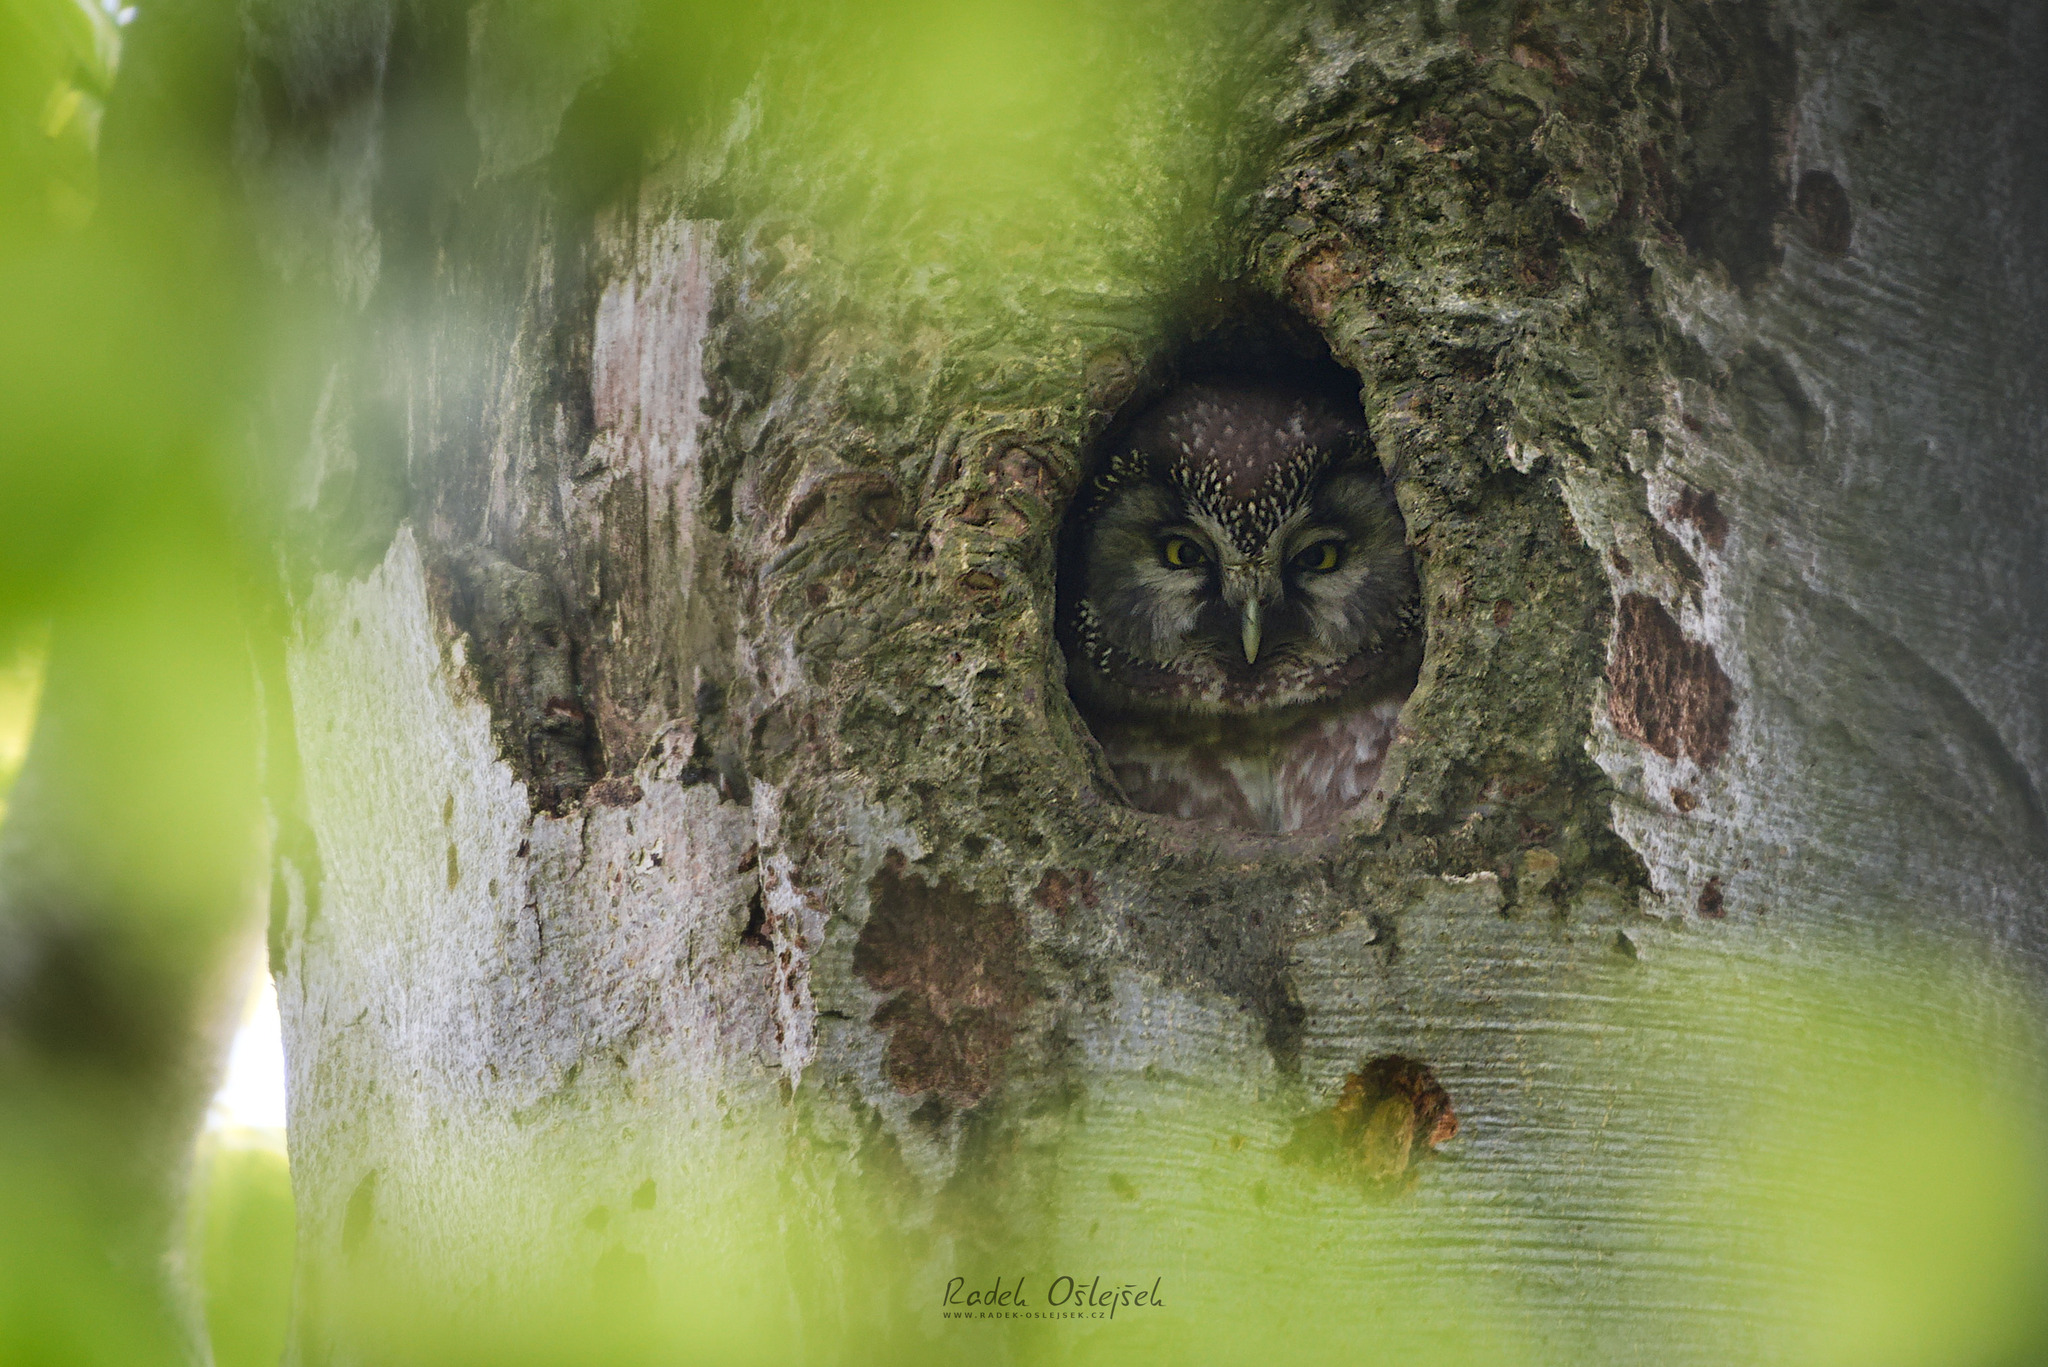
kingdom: Animalia
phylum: Chordata
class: Aves
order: Strigiformes
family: Strigidae
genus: Aegolius
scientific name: Aegolius funereus
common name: Boreal owl
